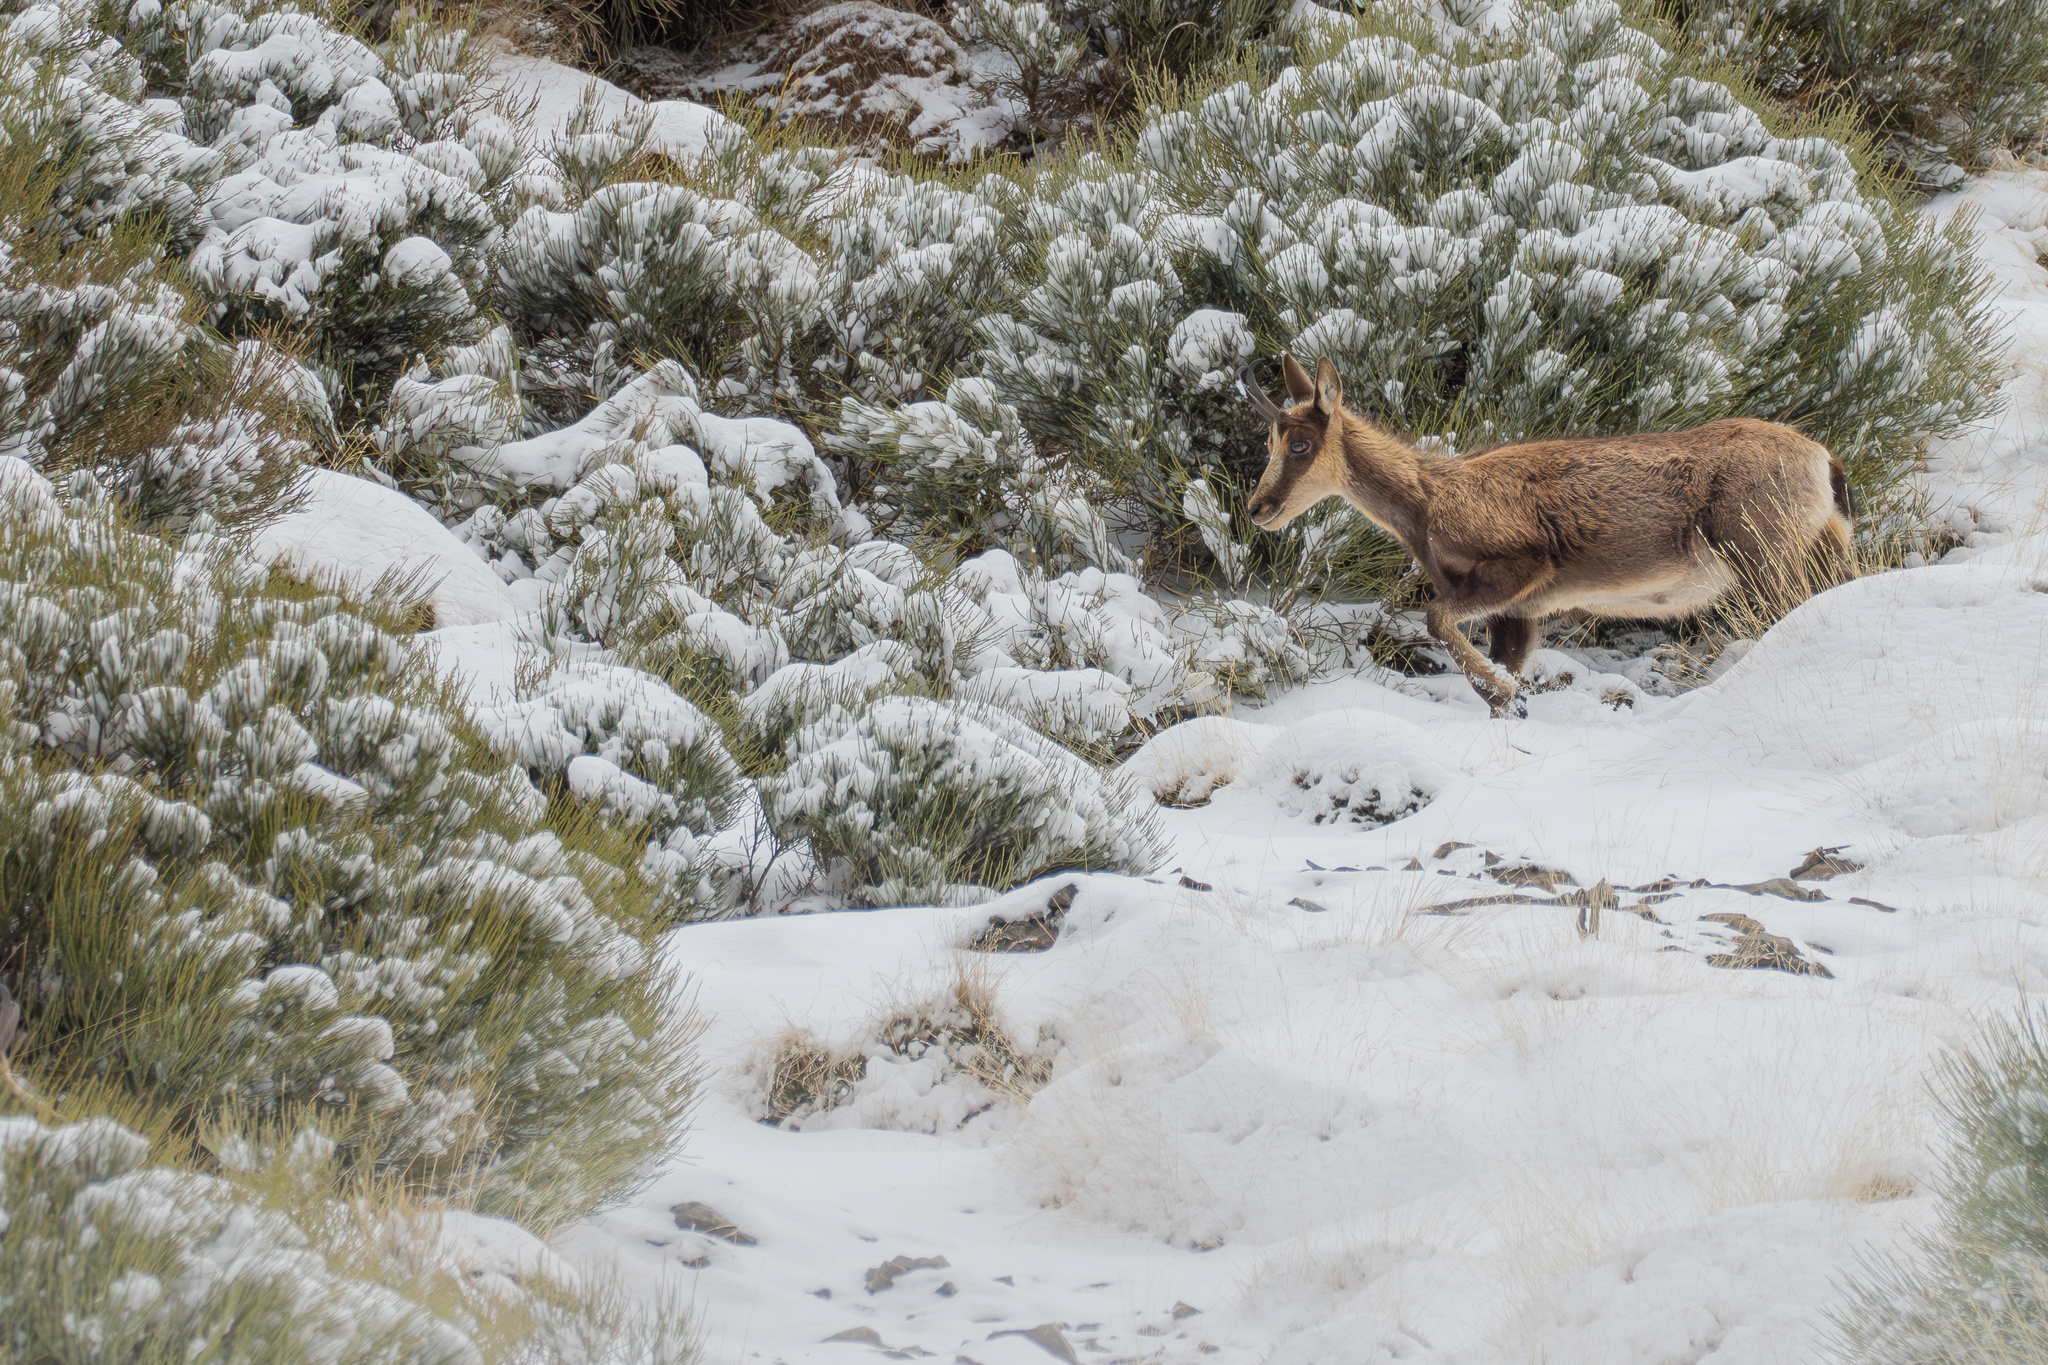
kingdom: Animalia
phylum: Chordata
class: Mammalia
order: Artiodactyla
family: Bovidae
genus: Rupicapra
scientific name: Rupicapra pyrenaica
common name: Pyrenean chamois
